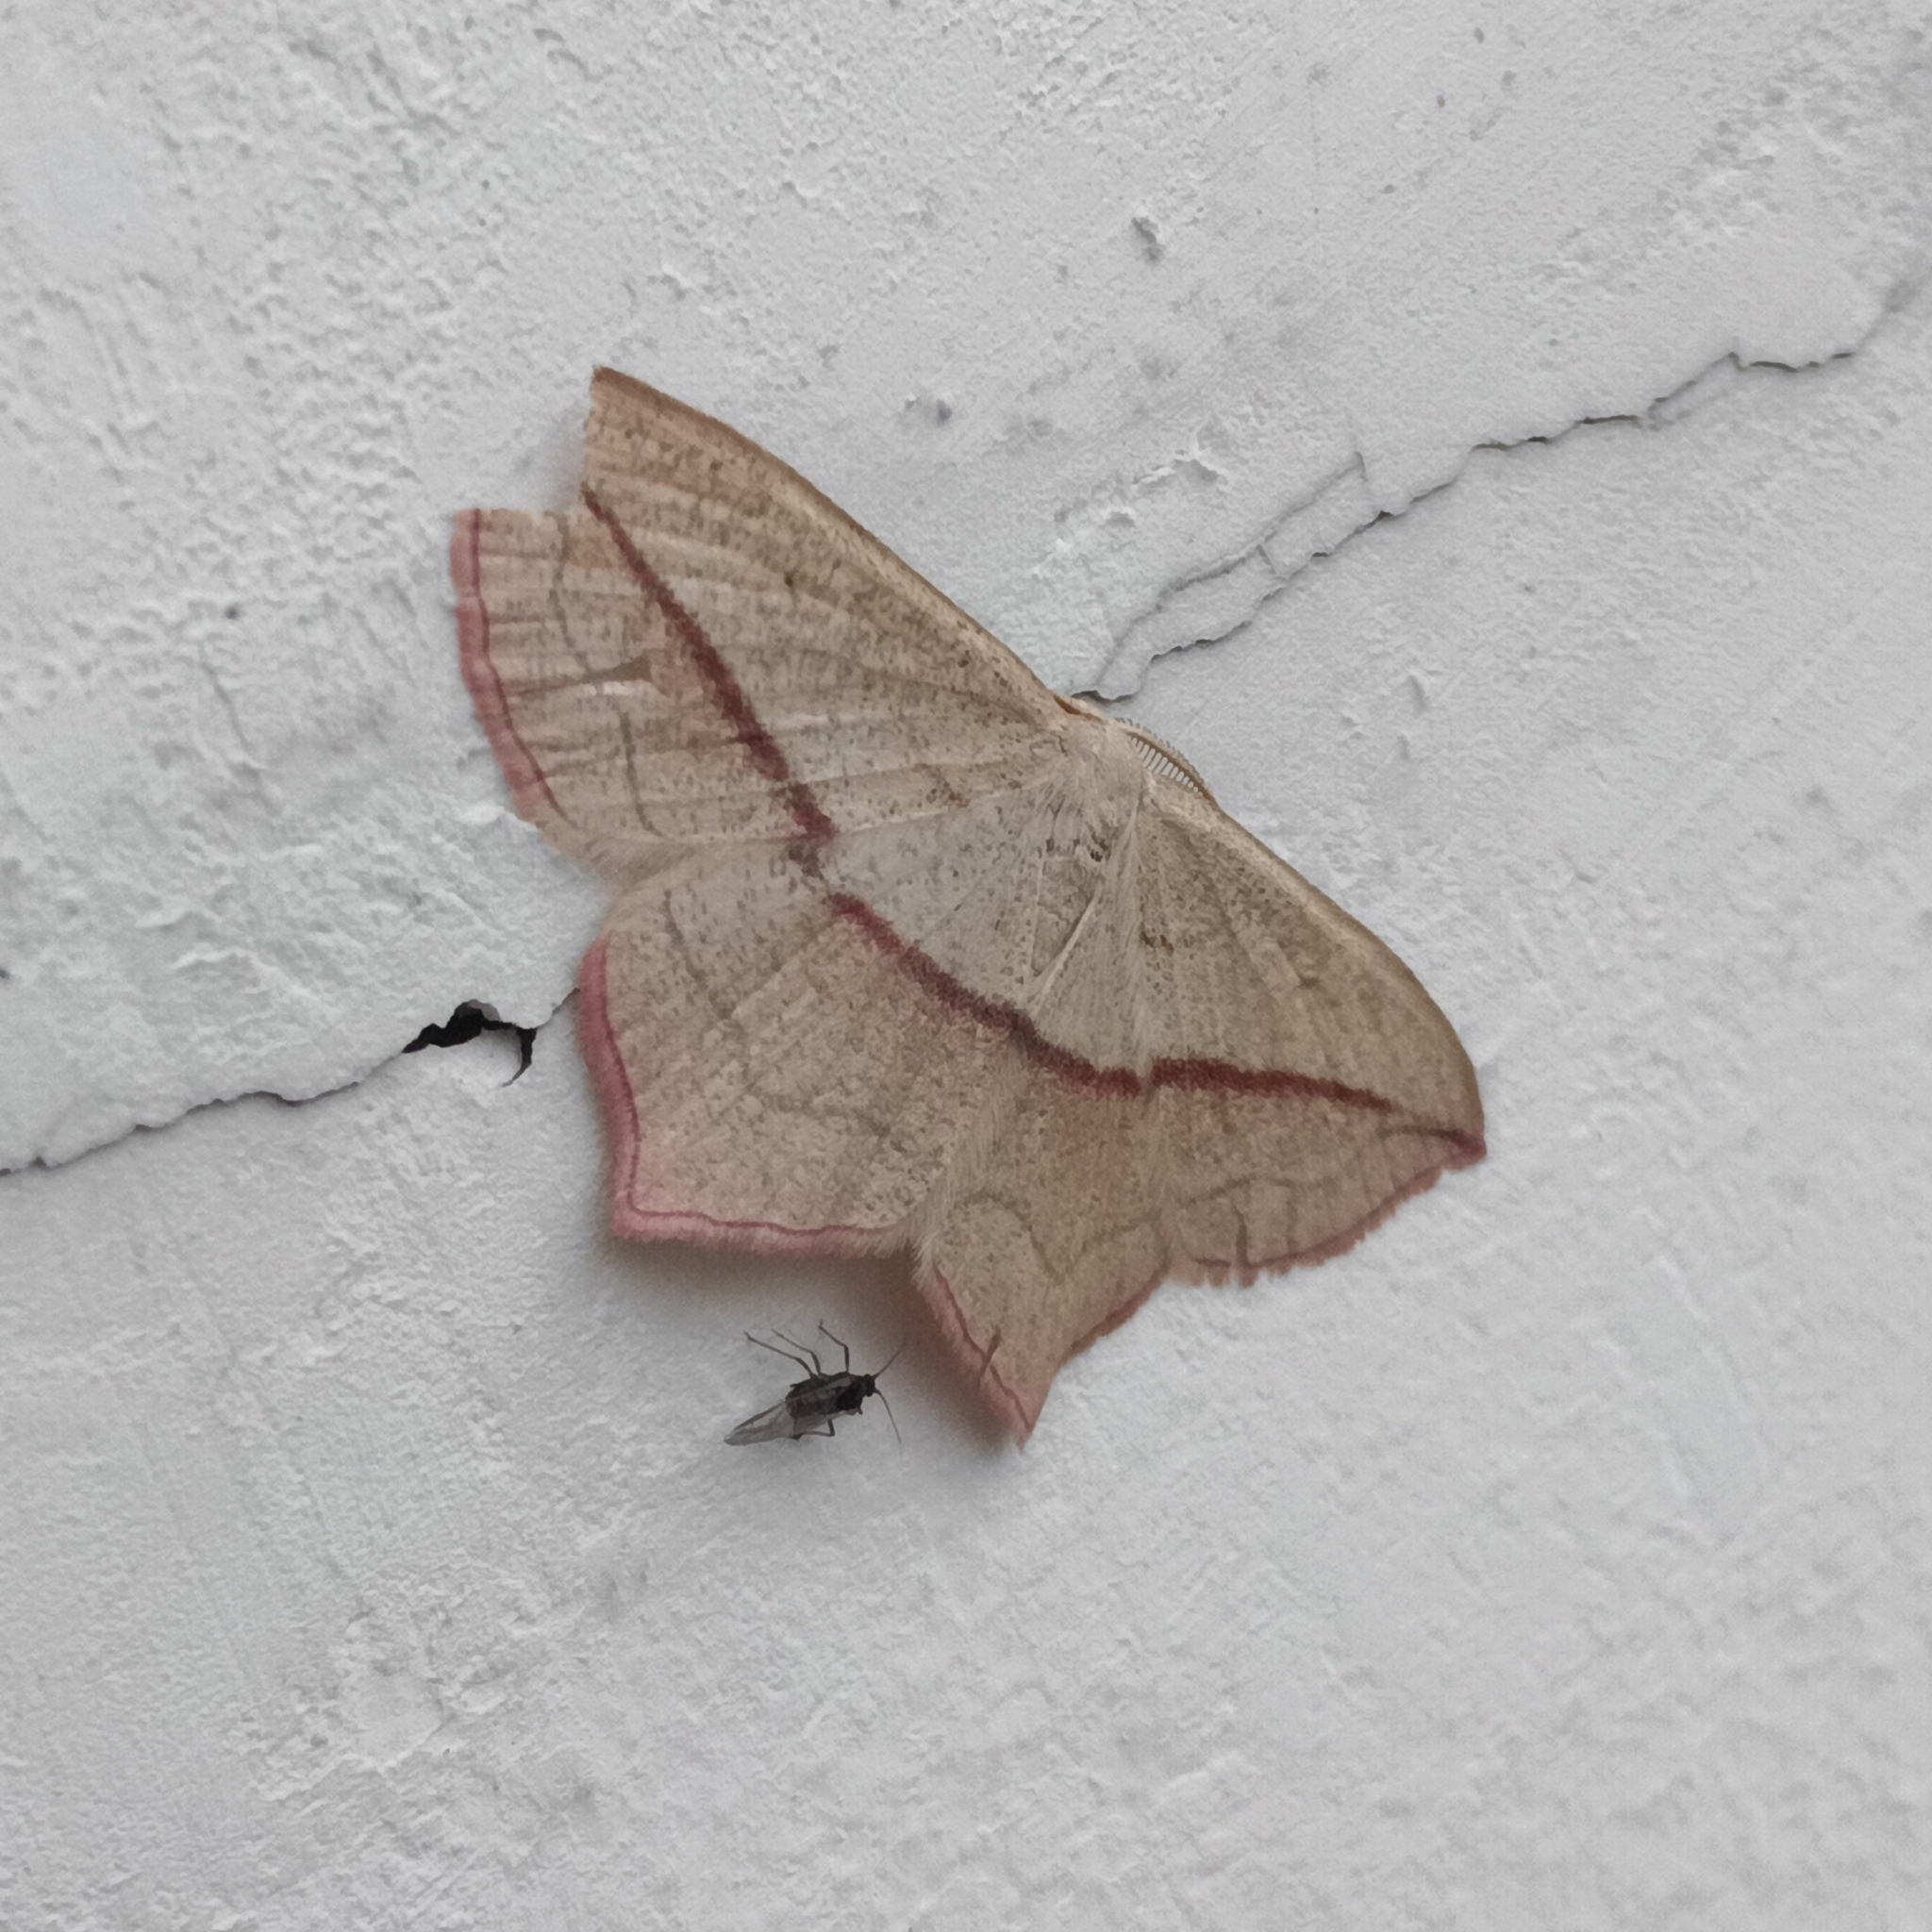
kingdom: Animalia
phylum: Arthropoda
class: Insecta
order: Lepidoptera
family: Geometridae
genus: Timandra
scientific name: Timandra comae
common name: Blood-vein
